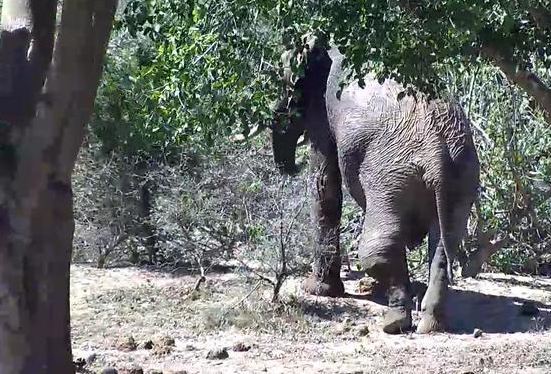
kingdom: Animalia
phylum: Chordata
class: Mammalia
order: Proboscidea
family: Elephantidae
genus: Loxodonta
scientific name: Loxodonta africana
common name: African elephant
